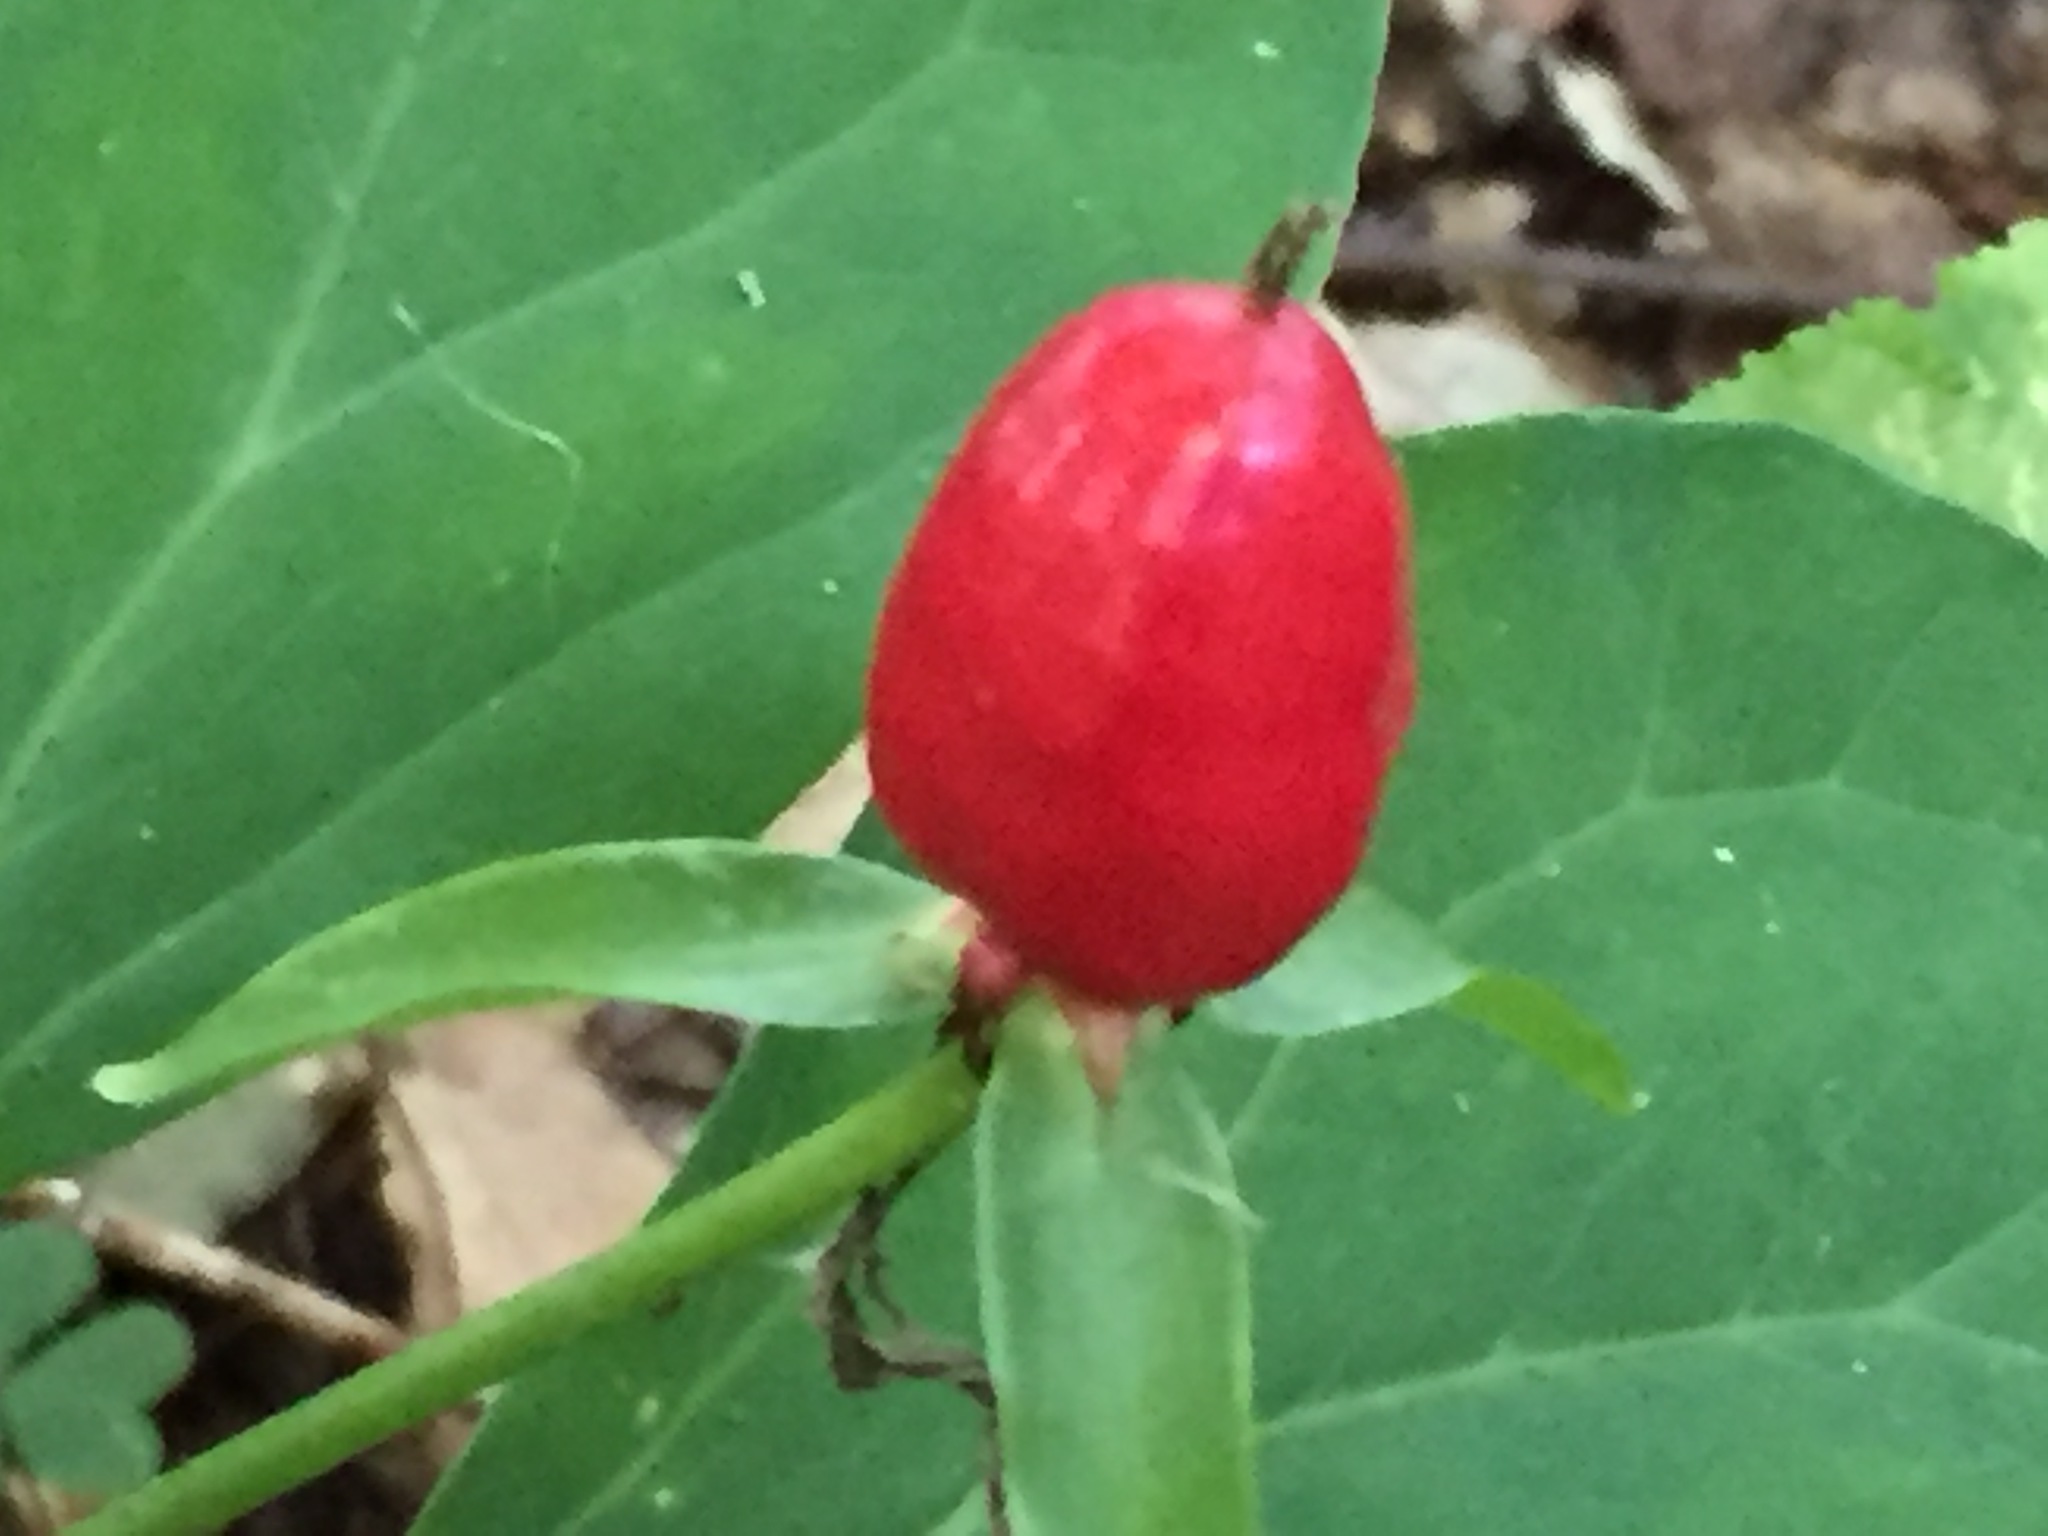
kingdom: Plantae
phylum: Tracheophyta
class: Liliopsida
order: Liliales
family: Melanthiaceae
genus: Trillium
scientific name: Trillium undulatum
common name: Paint trillium
